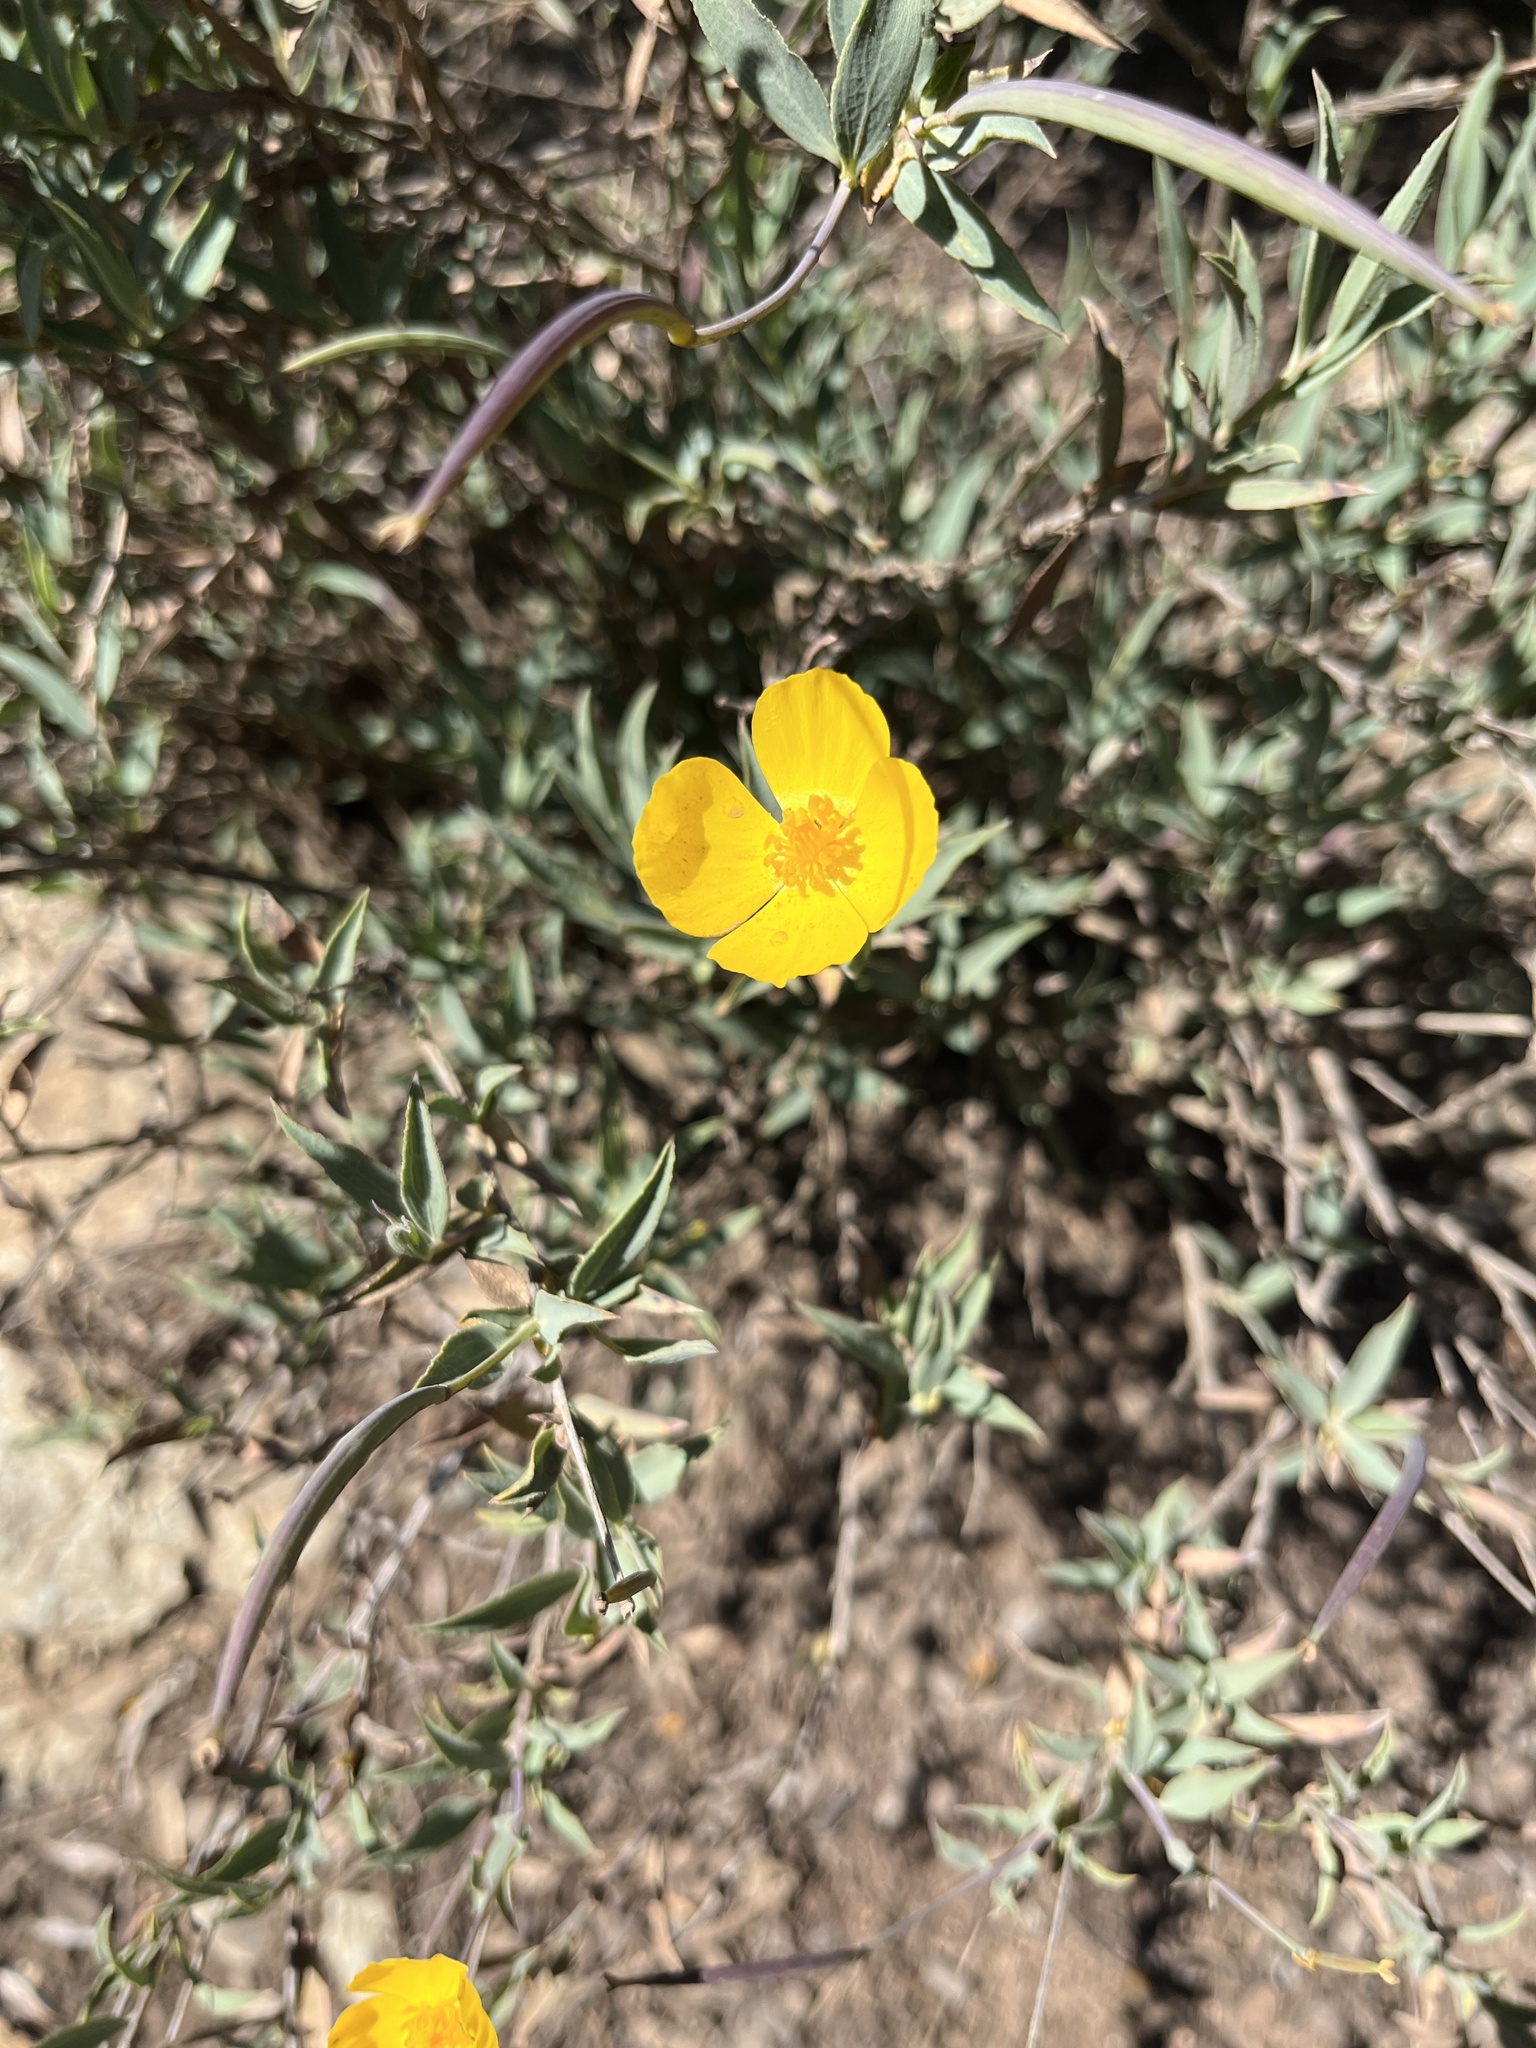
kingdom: Plantae
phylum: Tracheophyta
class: Magnoliopsida
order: Ranunculales
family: Papaveraceae
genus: Dendromecon
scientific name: Dendromecon rigida
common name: Tree poppy
